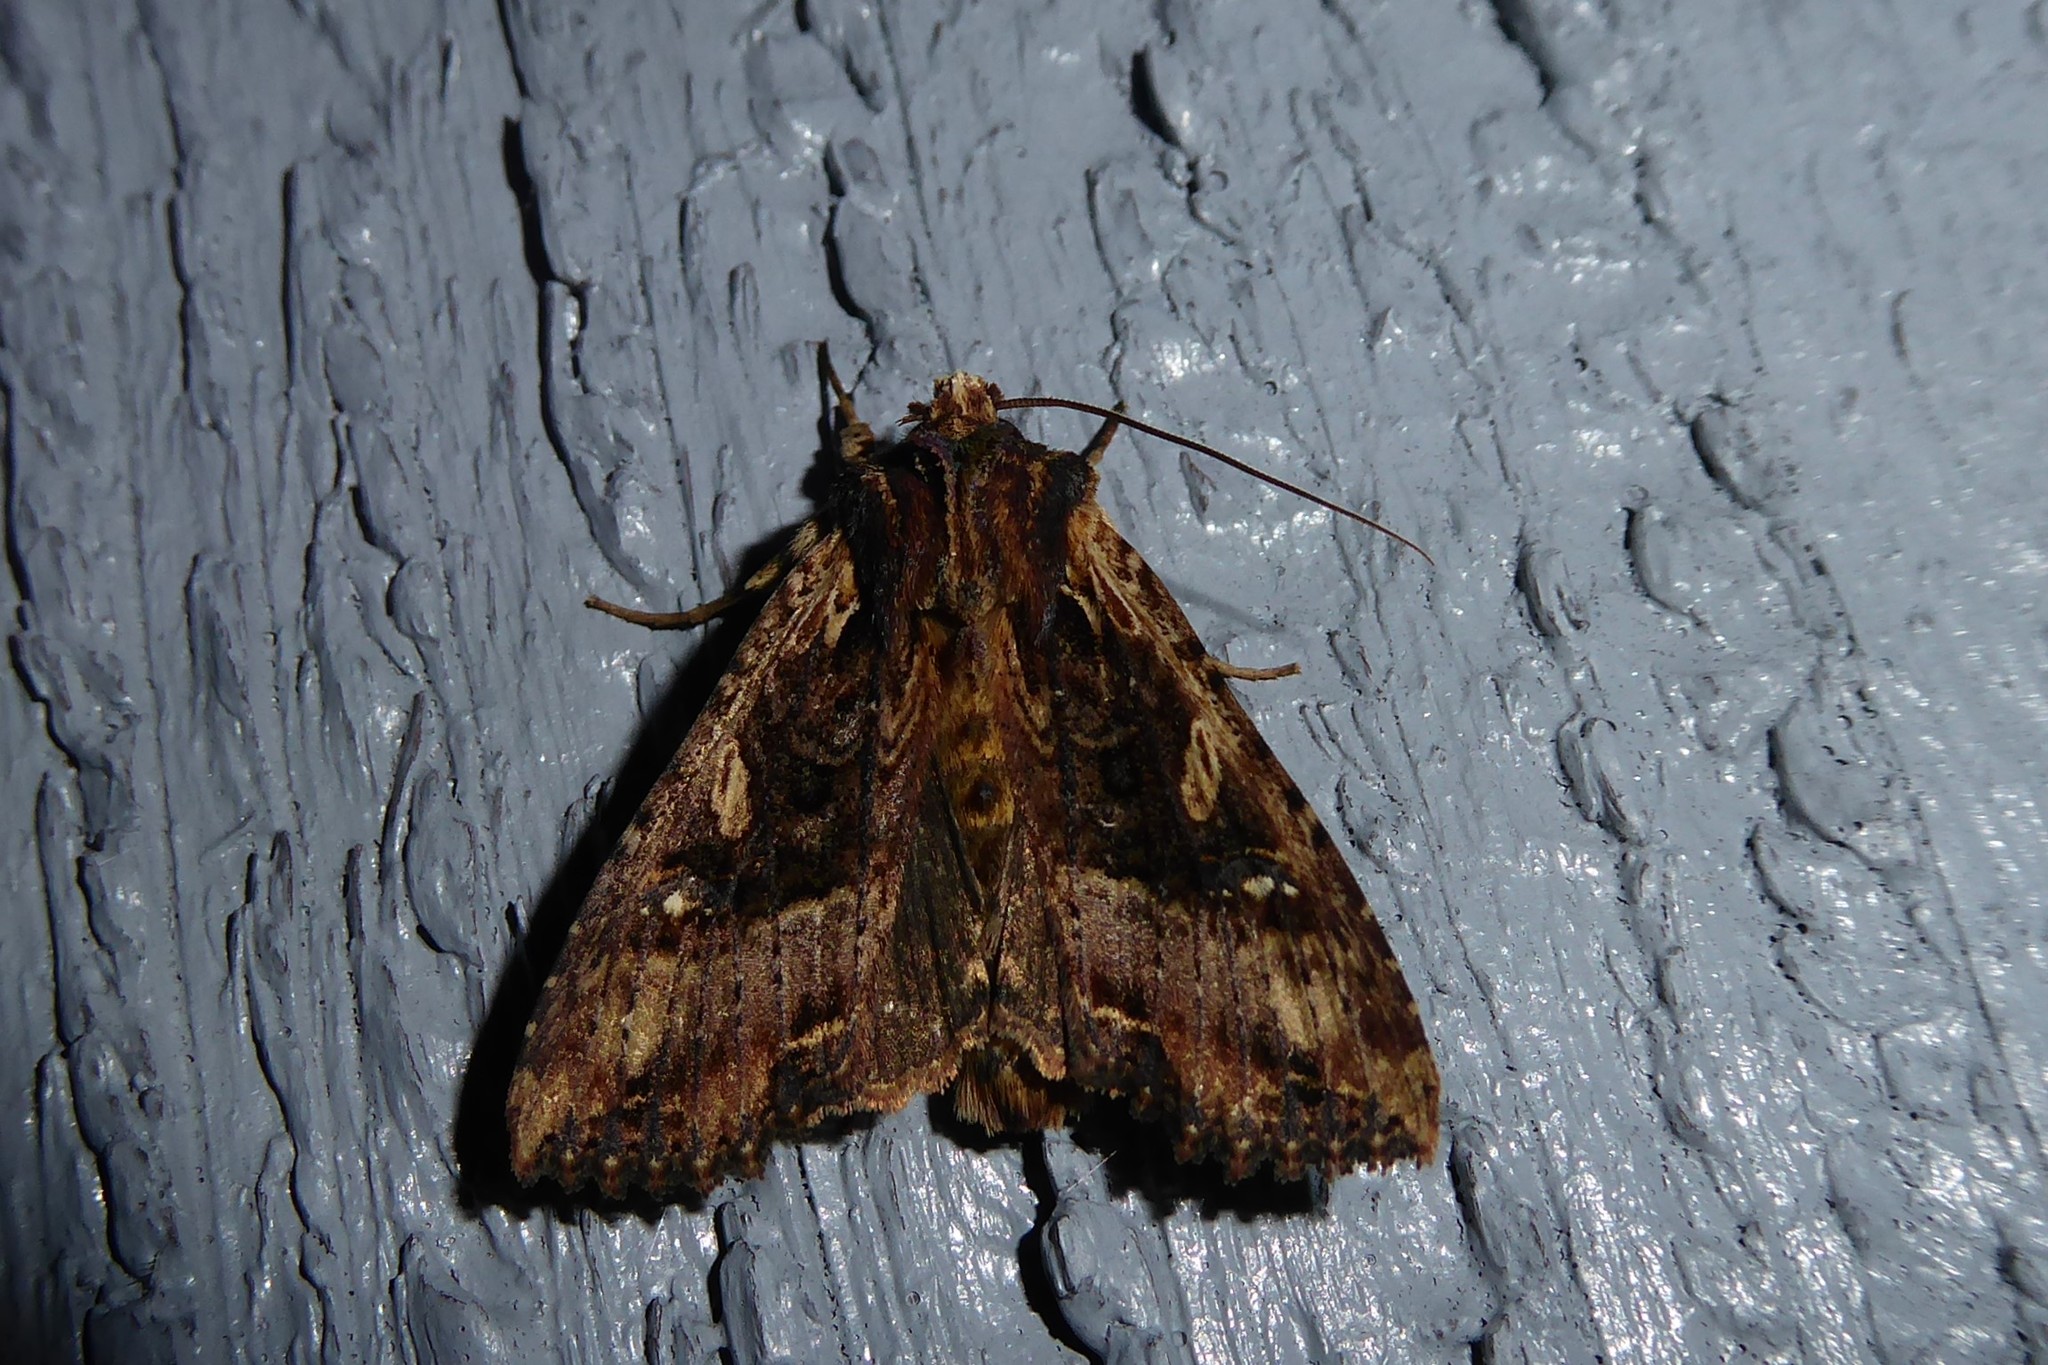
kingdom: Animalia
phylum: Arthropoda
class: Insecta
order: Lepidoptera
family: Noctuidae
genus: Meterana
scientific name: Meterana stipata
